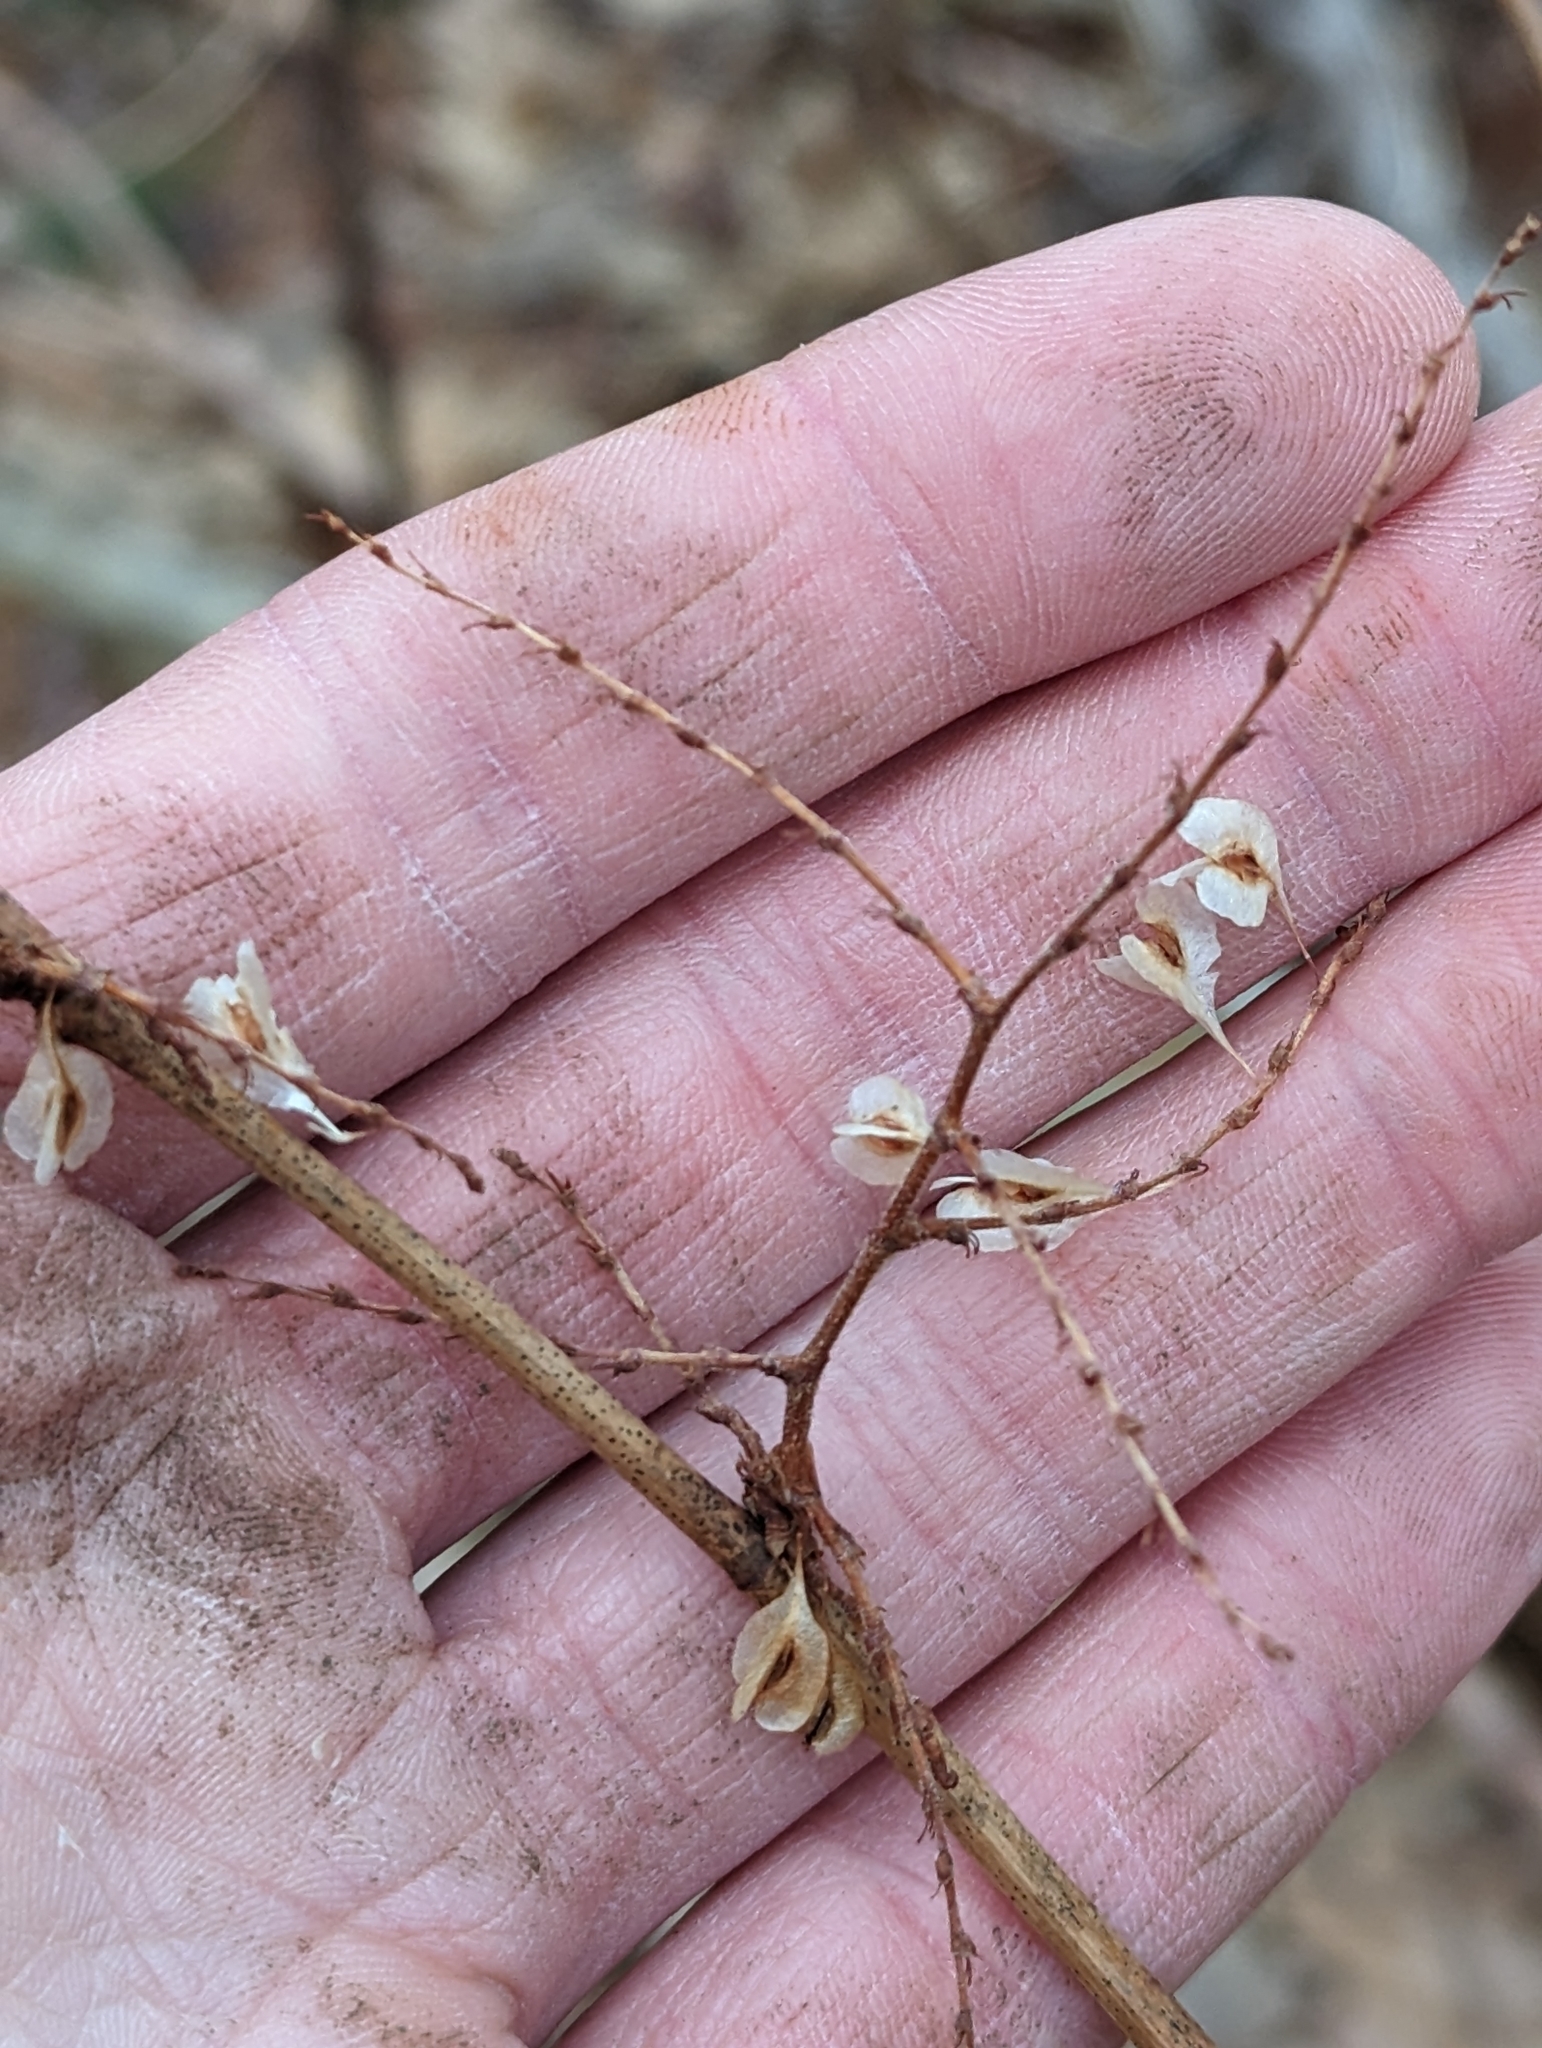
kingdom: Plantae
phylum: Tracheophyta
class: Magnoliopsida
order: Caryophyllales
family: Polygonaceae
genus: Reynoutria
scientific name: Reynoutria japonica
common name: Japanese knotweed
